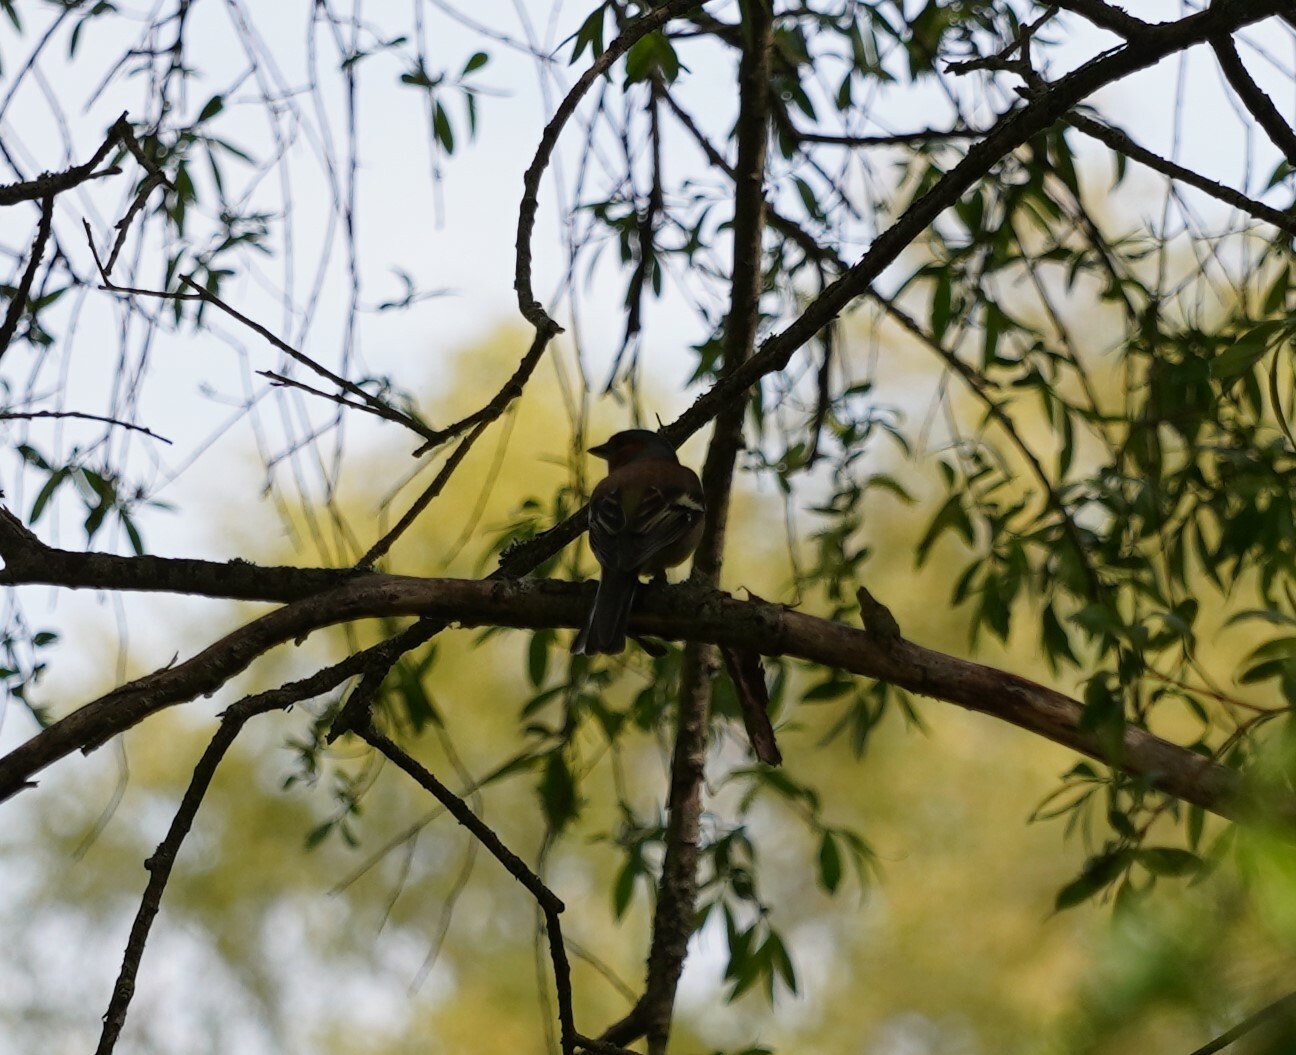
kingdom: Animalia
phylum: Chordata
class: Aves
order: Passeriformes
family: Fringillidae
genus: Fringilla
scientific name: Fringilla coelebs
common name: Common chaffinch
